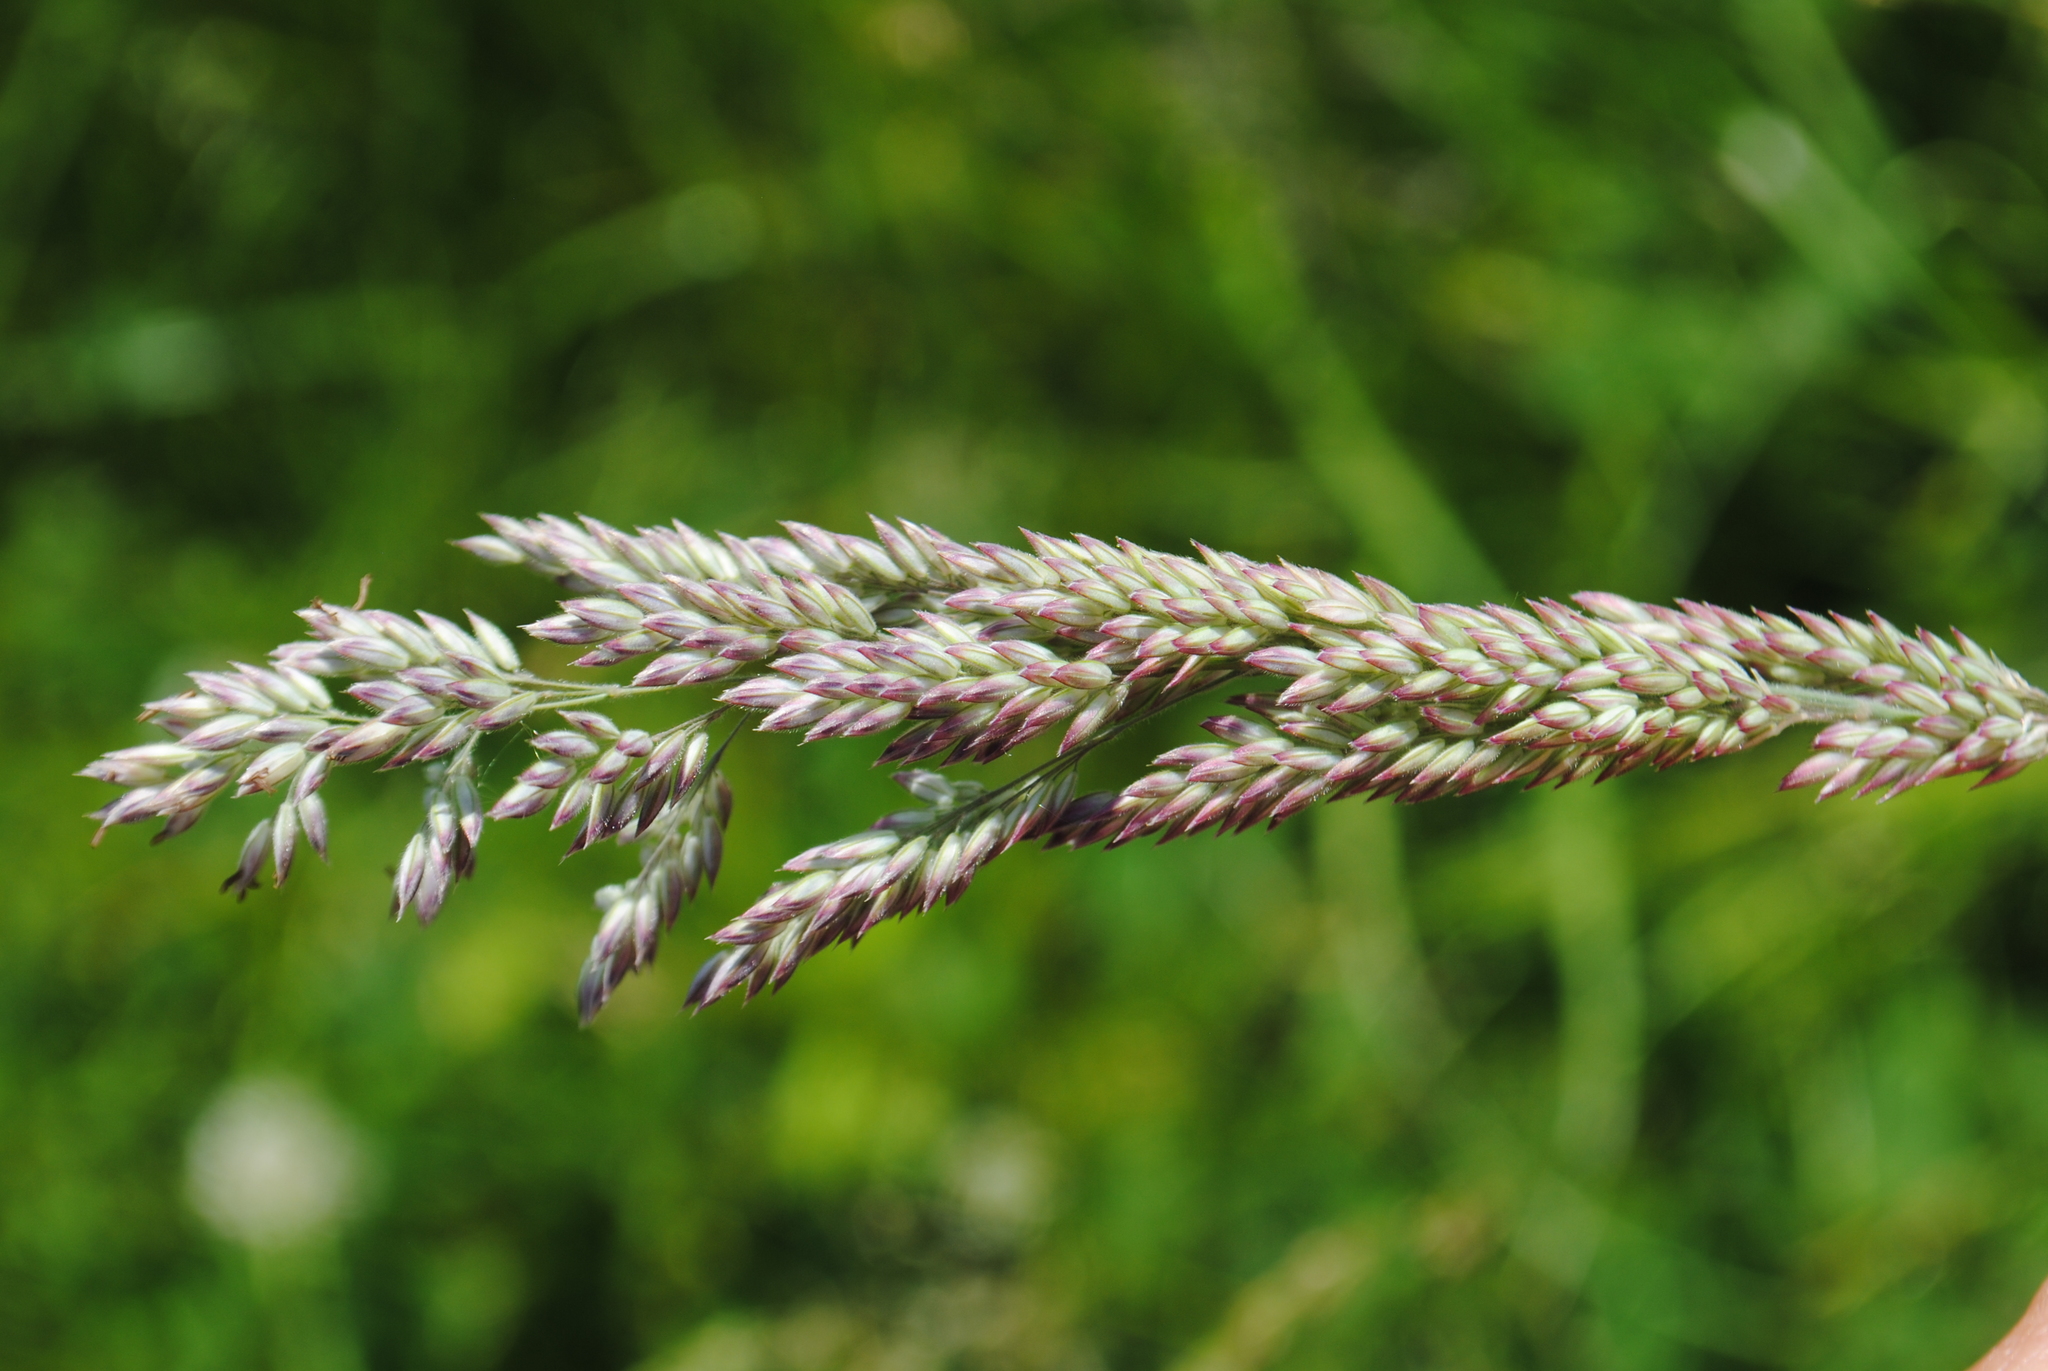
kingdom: Plantae
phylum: Tracheophyta
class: Liliopsida
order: Poales
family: Poaceae
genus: Holcus
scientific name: Holcus lanatus
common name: Yorkshire-fog
